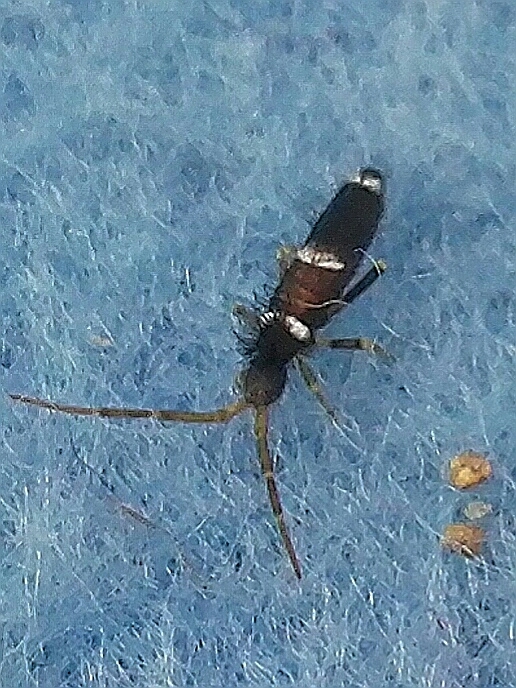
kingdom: Animalia
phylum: Arthropoda
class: Collembola
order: Entomobryomorpha
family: Entomobryidae
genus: Entomobrya
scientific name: Entomobrya dorsalis
